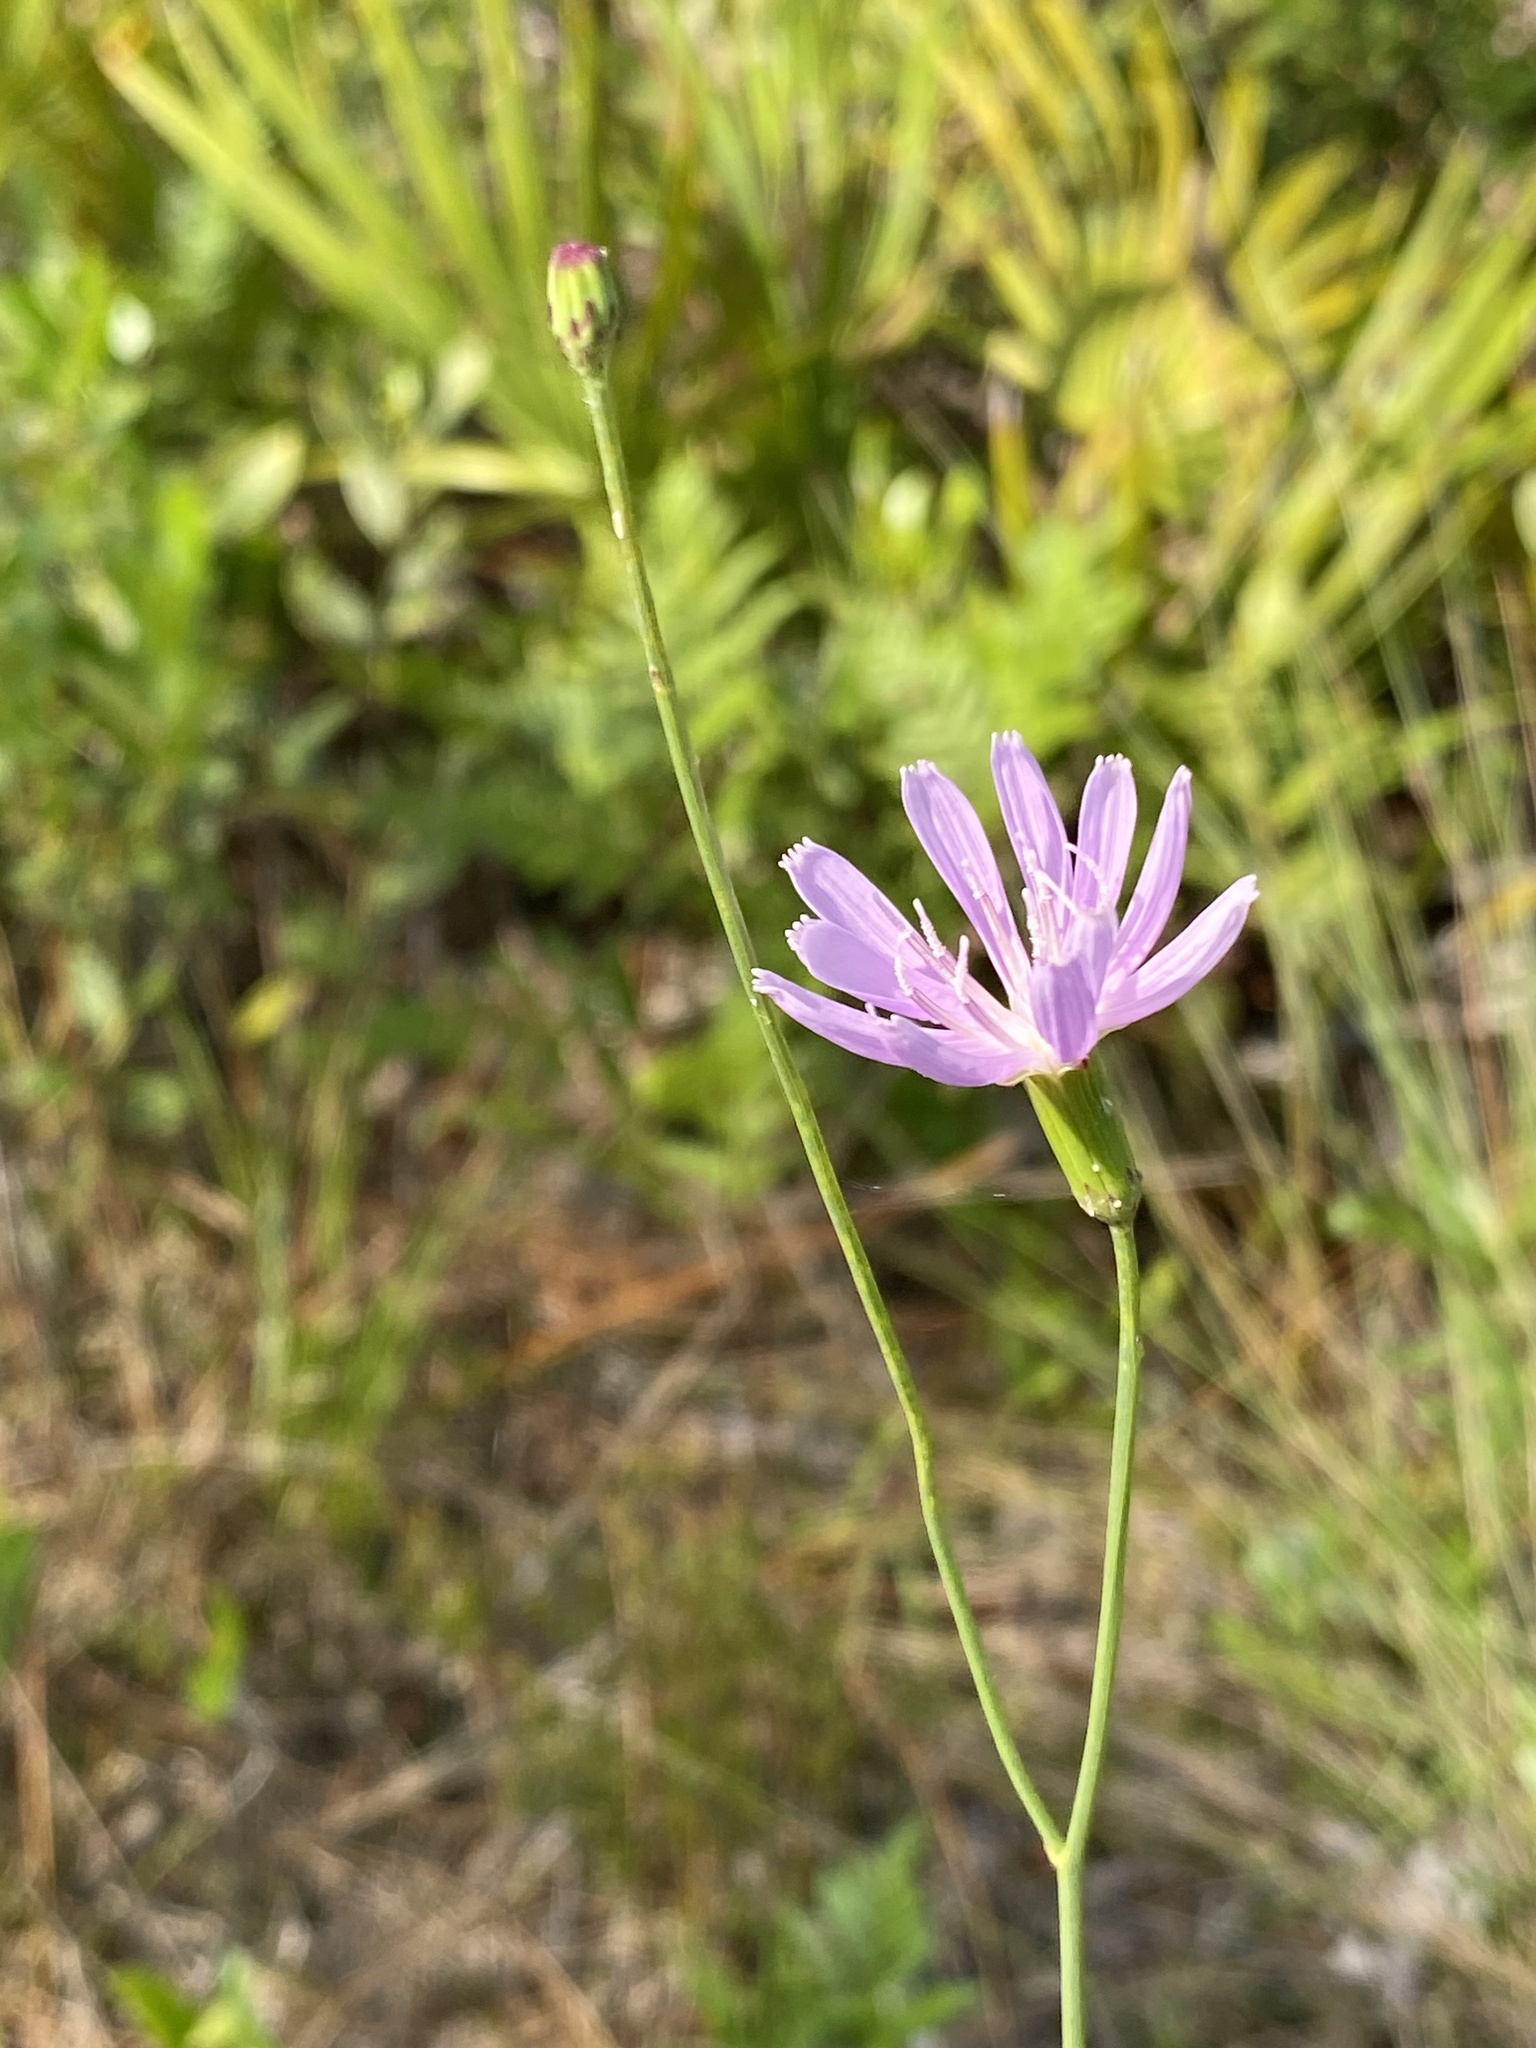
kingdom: Plantae
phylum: Tracheophyta
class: Magnoliopsida
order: Asterales
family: Asteraceae
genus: Lygodesmia
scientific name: Lygodesmia aphylla
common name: Rose-rush
